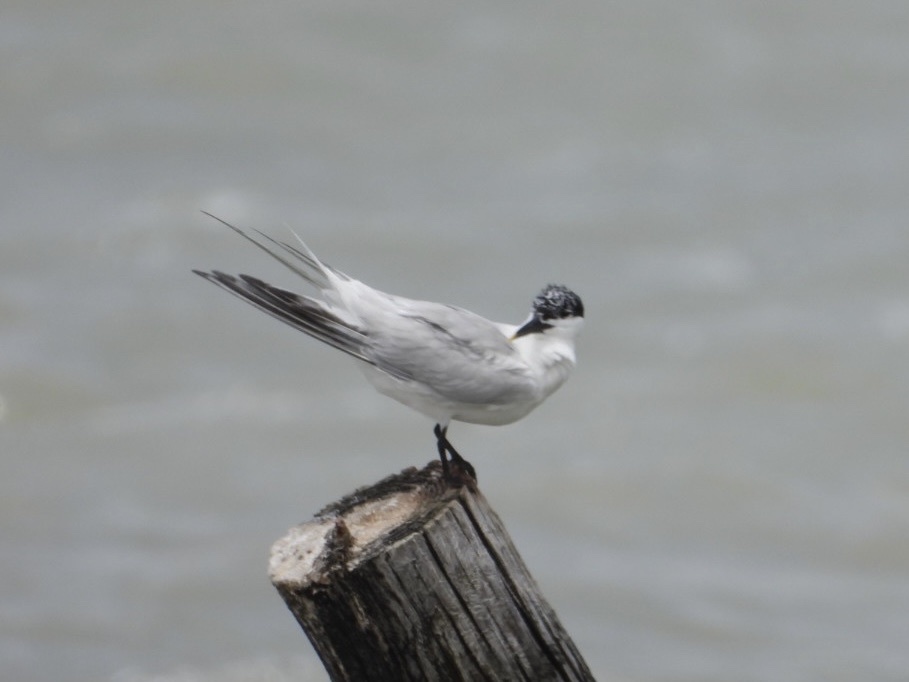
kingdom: Animalia
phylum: Chordata
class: Aves
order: Charadriiformes
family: Laridae
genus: Thalasseus
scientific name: Thalasseus sandvicensis
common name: Sandwich tern
